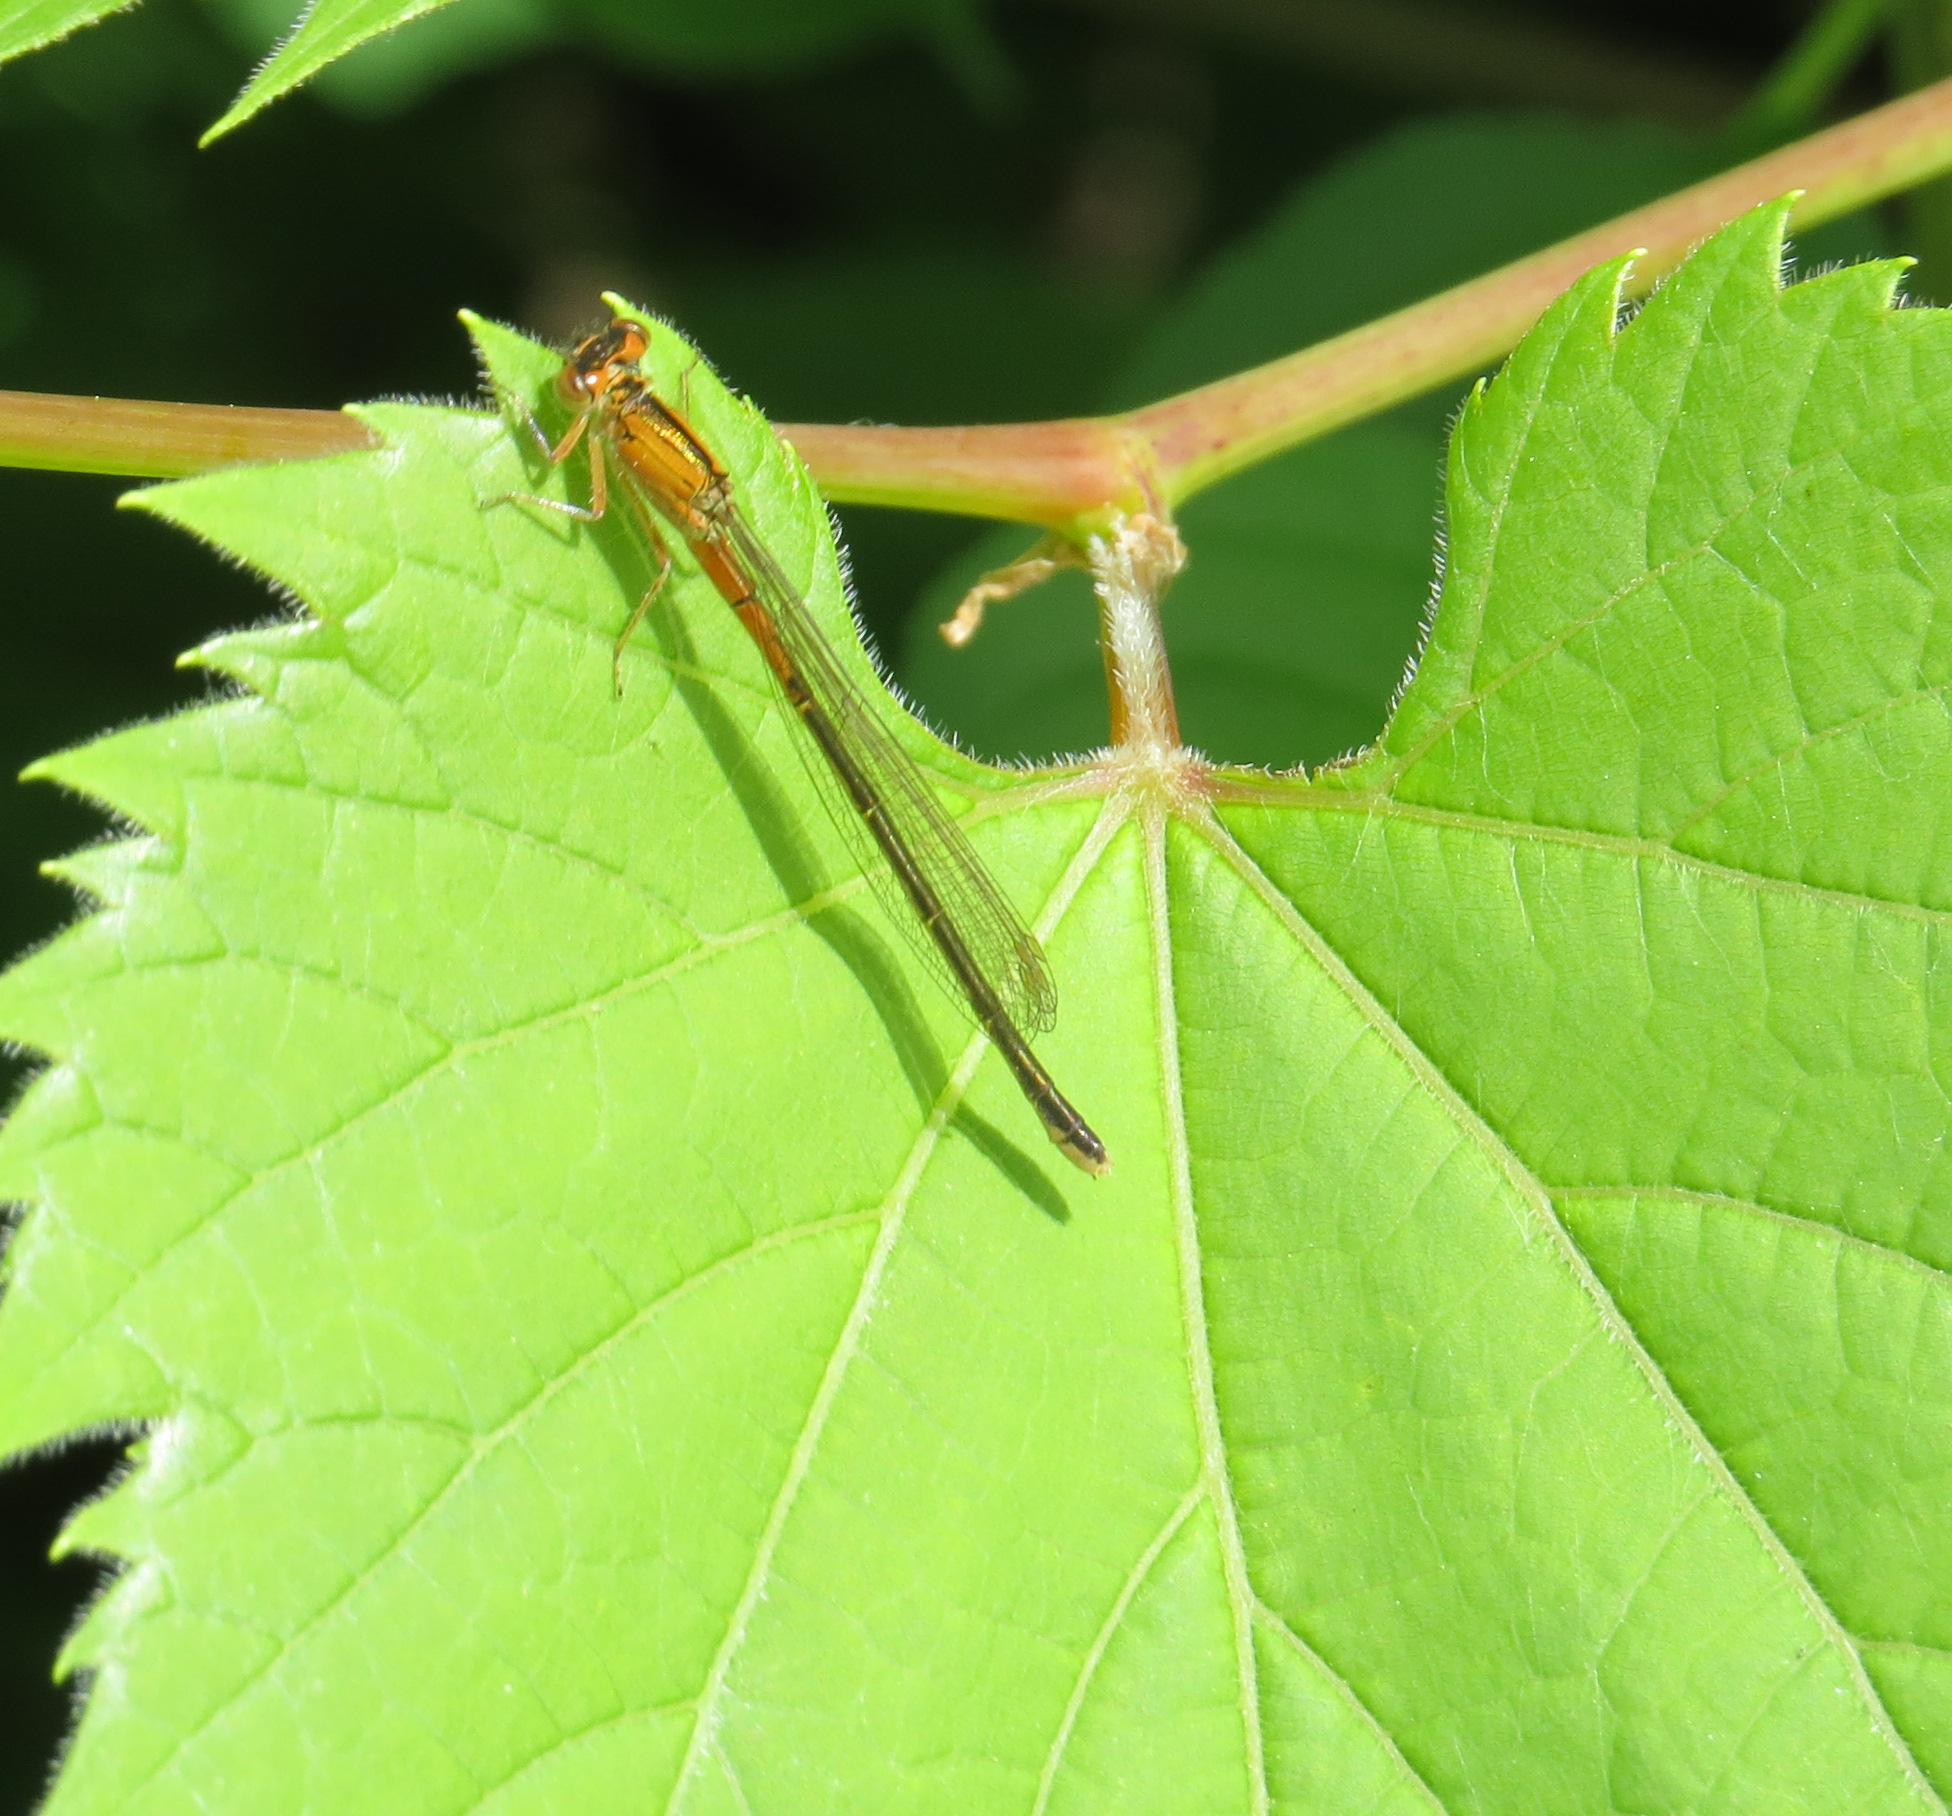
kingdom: Animalia
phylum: Arthropoda
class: Insecta
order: Odonata
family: Coenagrionidae
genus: Ischnura
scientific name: Ischnura verticalis
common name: Eastern forktail
